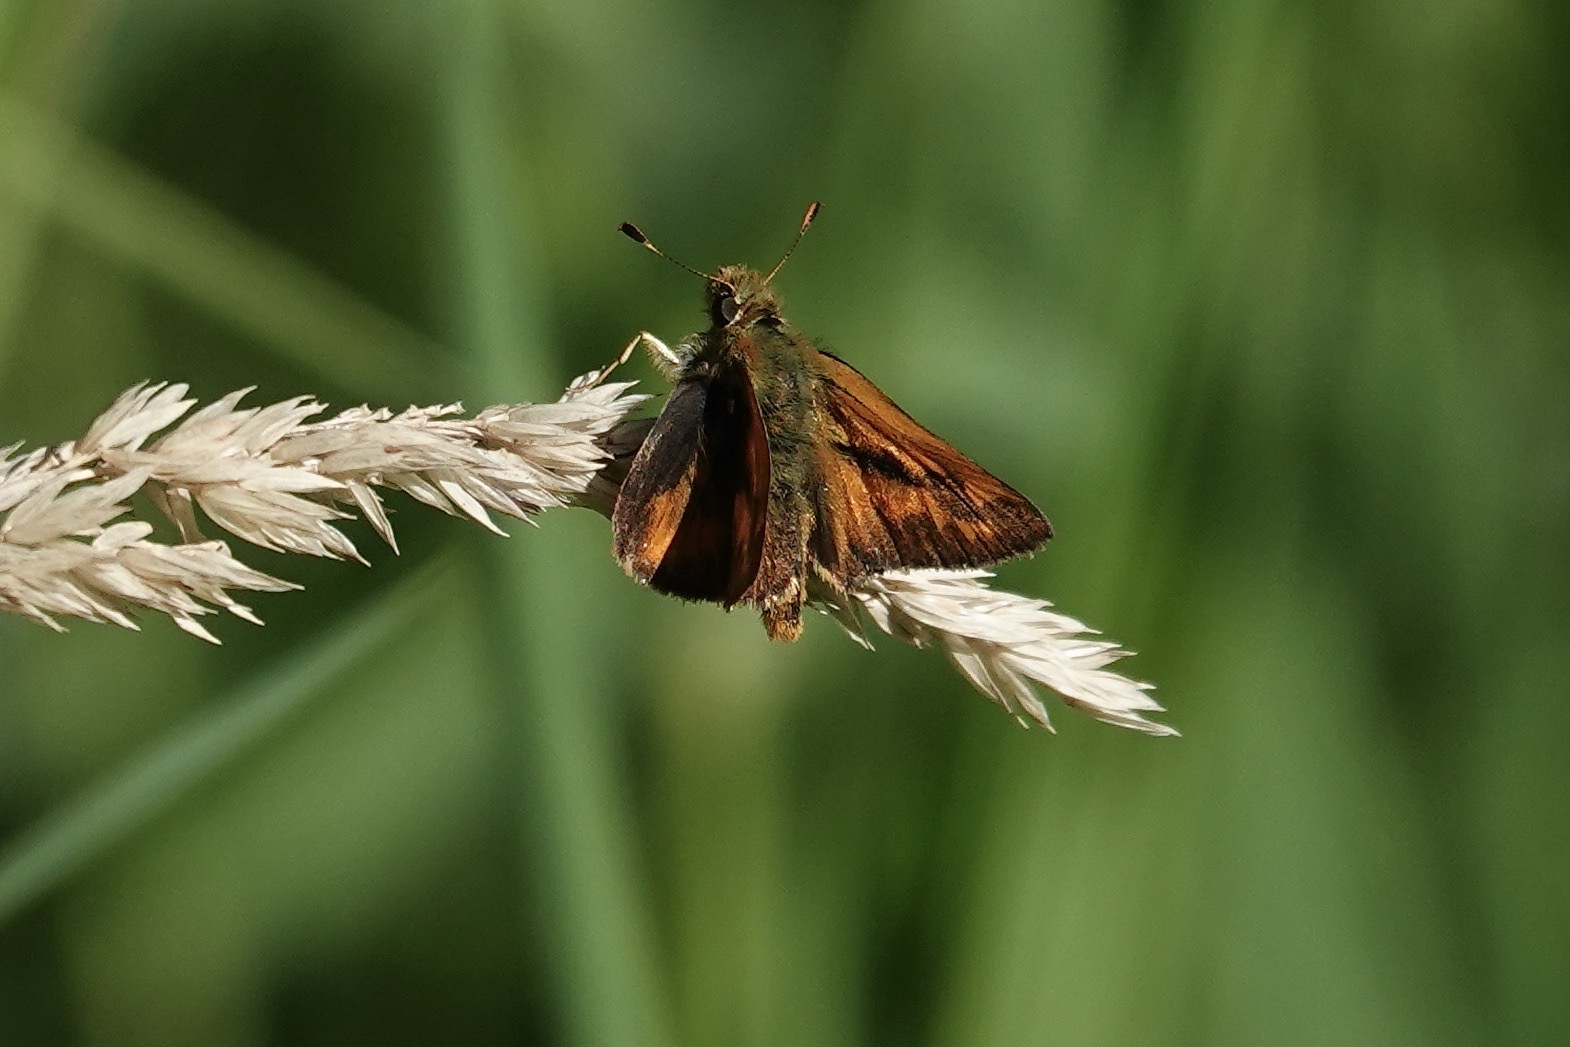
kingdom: Animalia
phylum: Arthropoda
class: Insecta
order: Lepidoptera
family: Hesperiidae
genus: Ochlodes
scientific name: Ochlodes sylvanoides
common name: Woodland skipper
